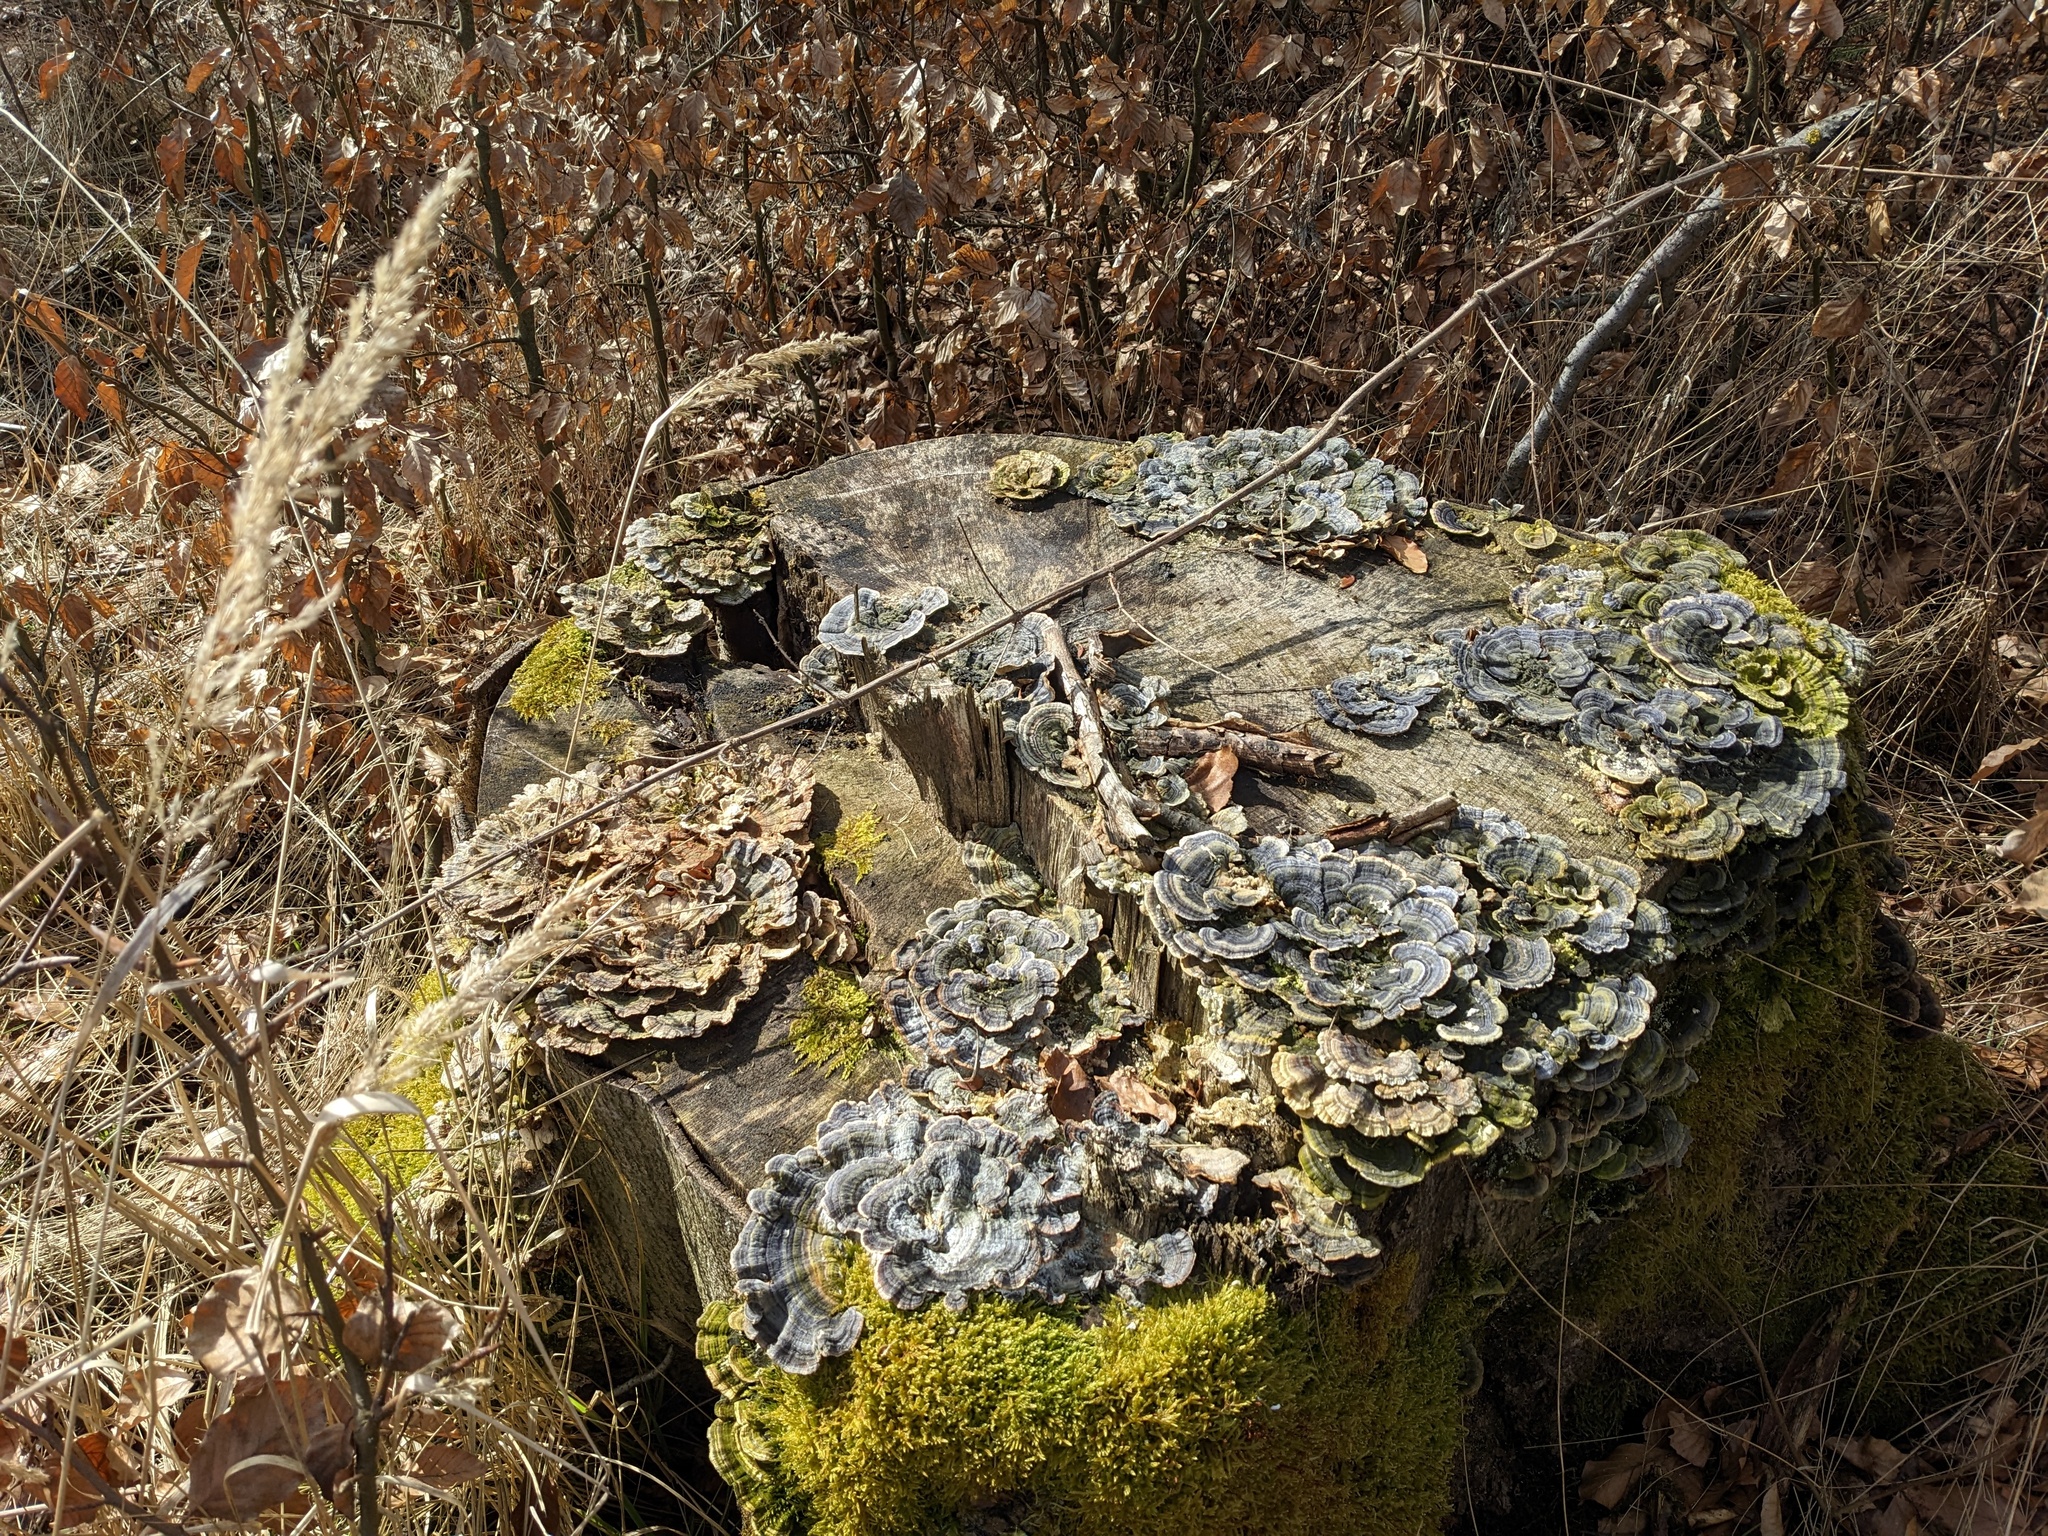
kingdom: Fungi
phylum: Basidiomycota
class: Agaricomycetes
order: Polyporales
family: Polyporaceae
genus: Trametes
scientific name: Trametes versicolor
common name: Turkeytail
